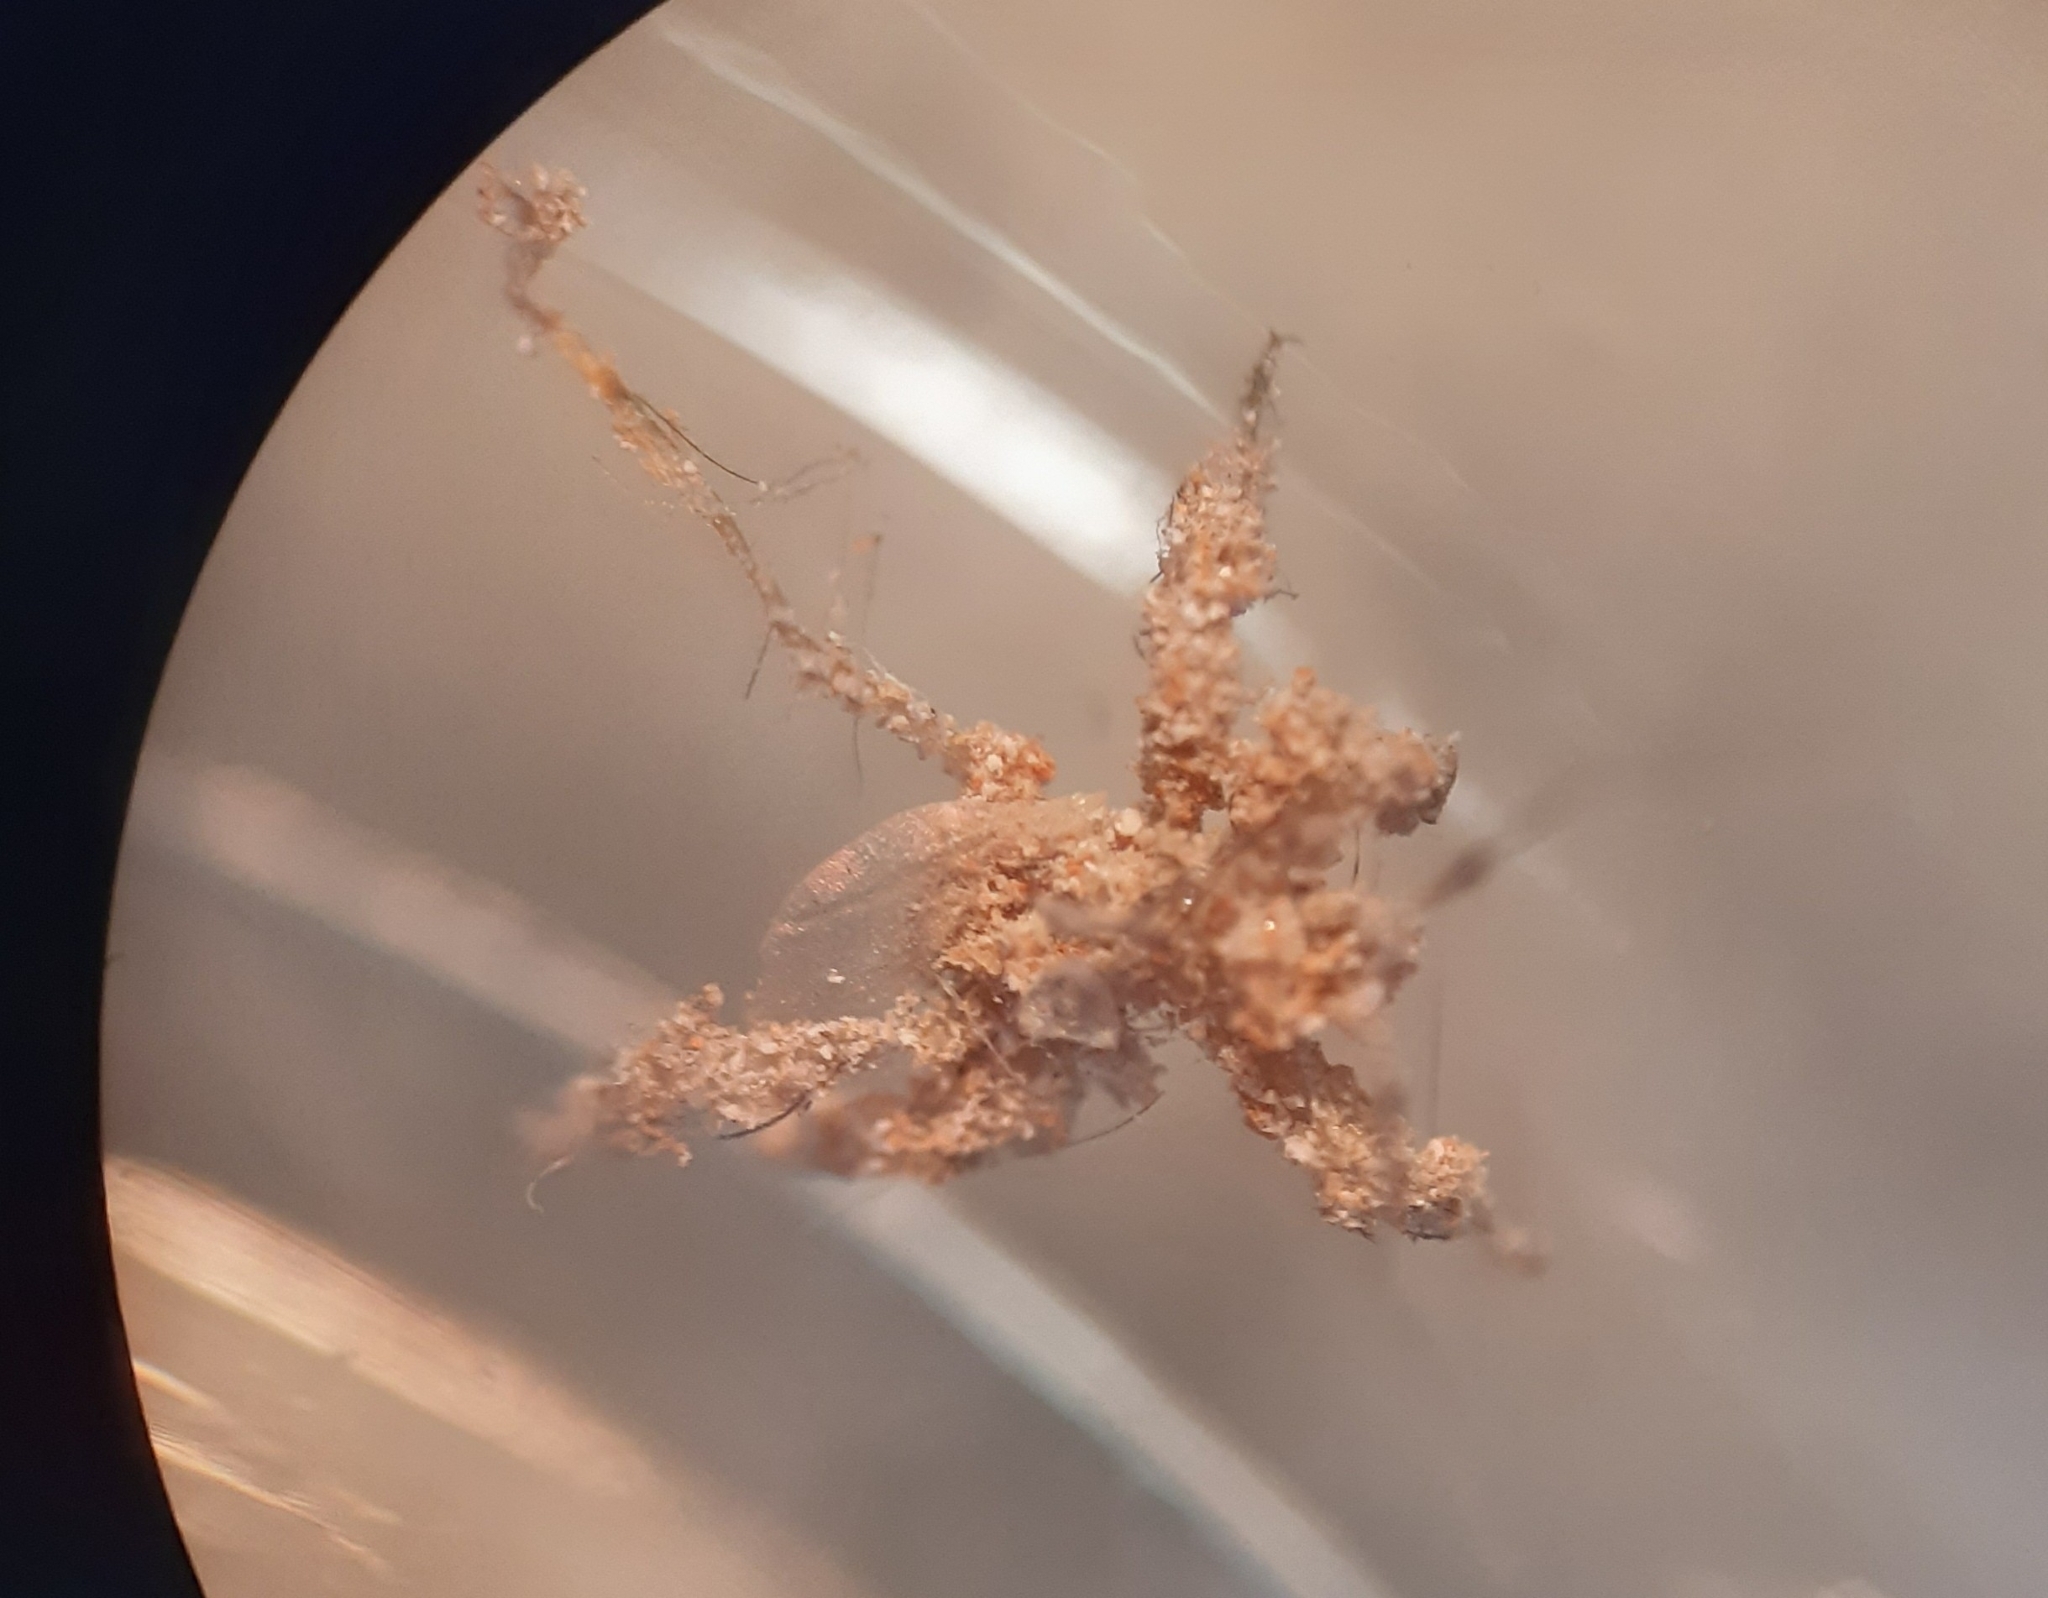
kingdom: Animalia
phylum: Arthropoda
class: Insecta
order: Hemiptera
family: Reduviidae
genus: Reduvius
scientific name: Reduvius personatus
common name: Masked hunter
